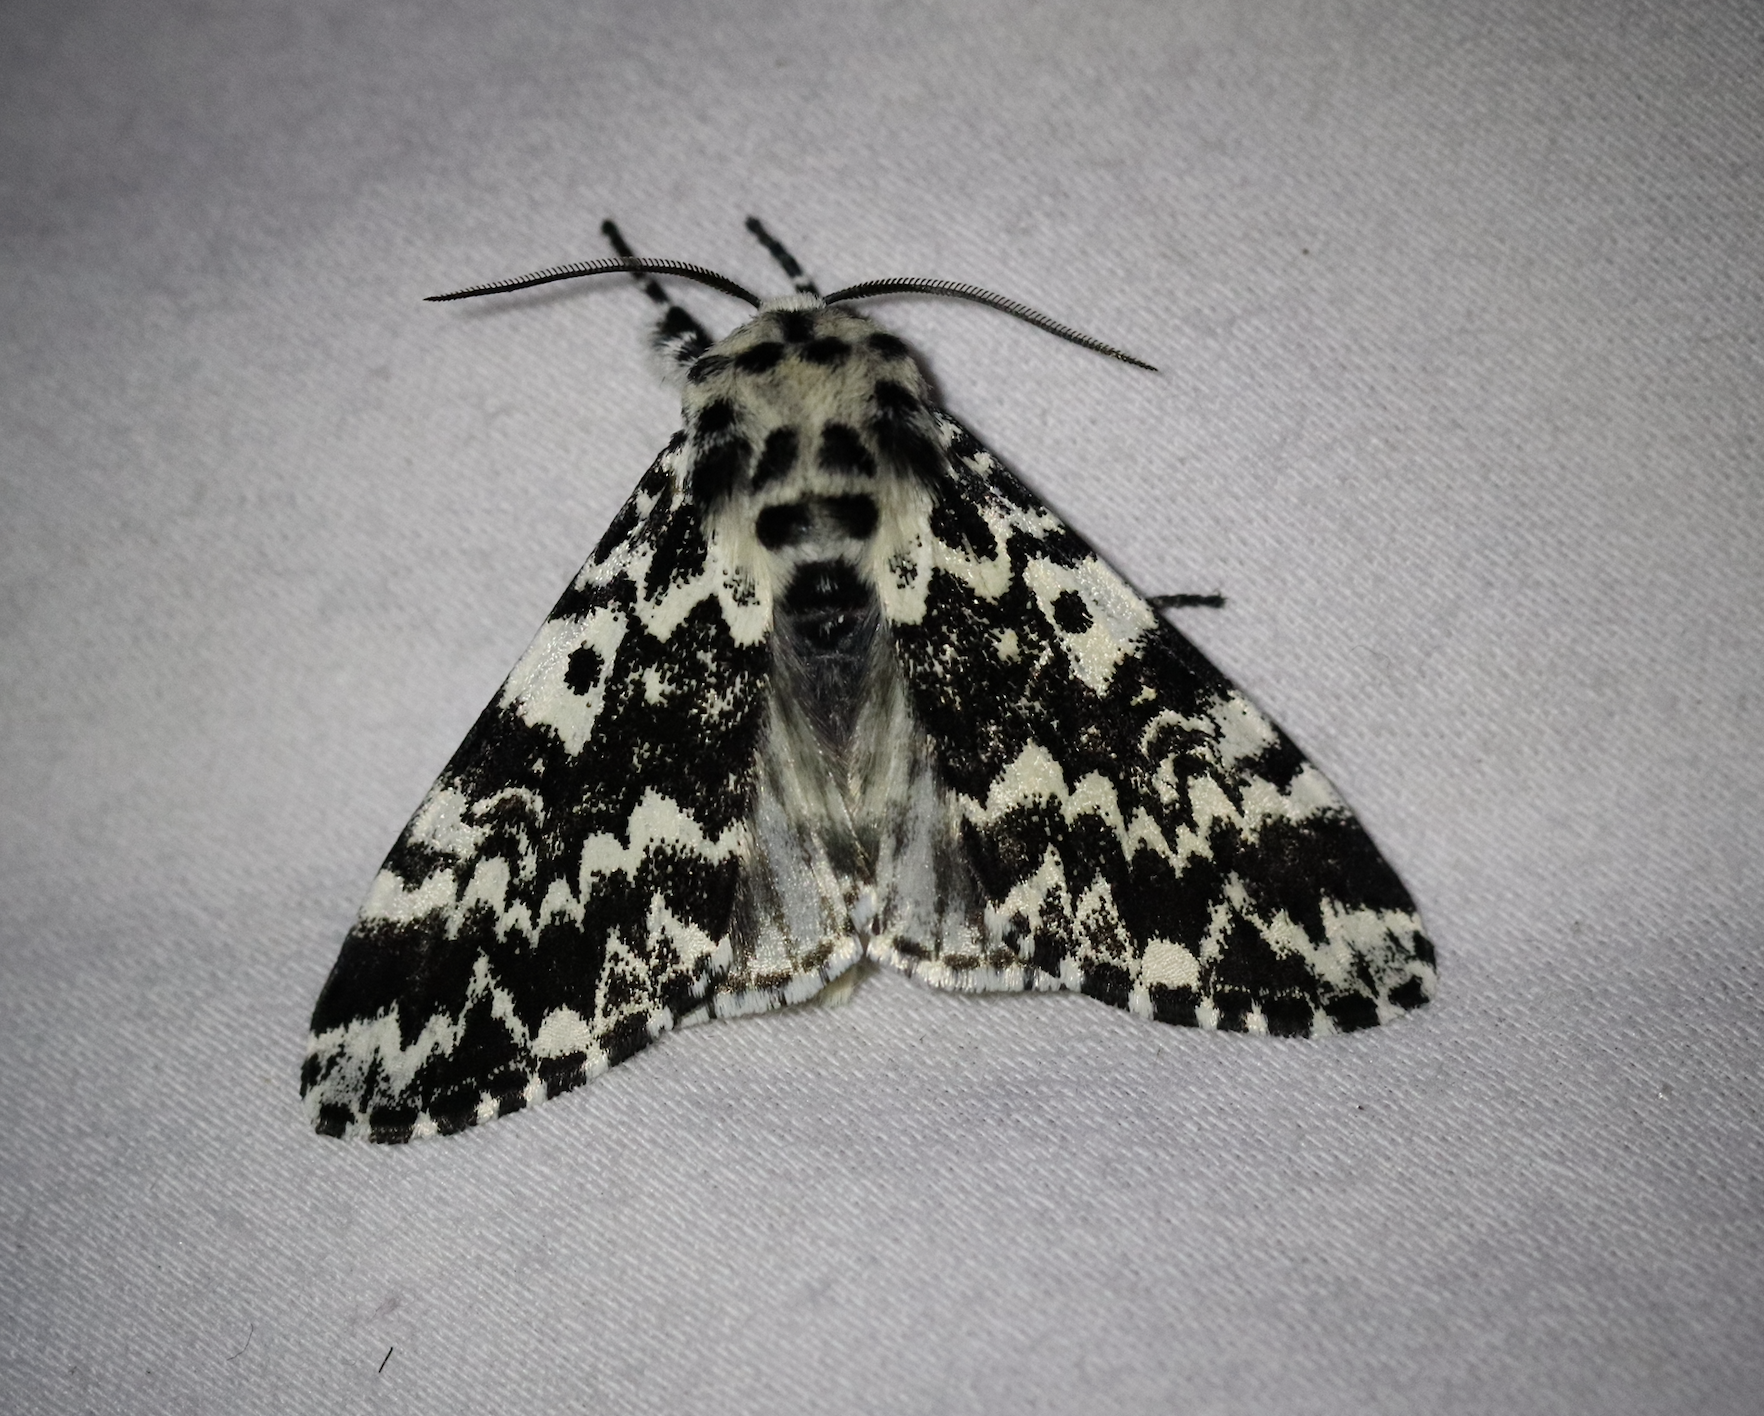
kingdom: Animalia
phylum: Arthropoda
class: Insecta
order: Lepidoptera
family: Noctuidae
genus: Panthea
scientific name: Panthea coenobita
